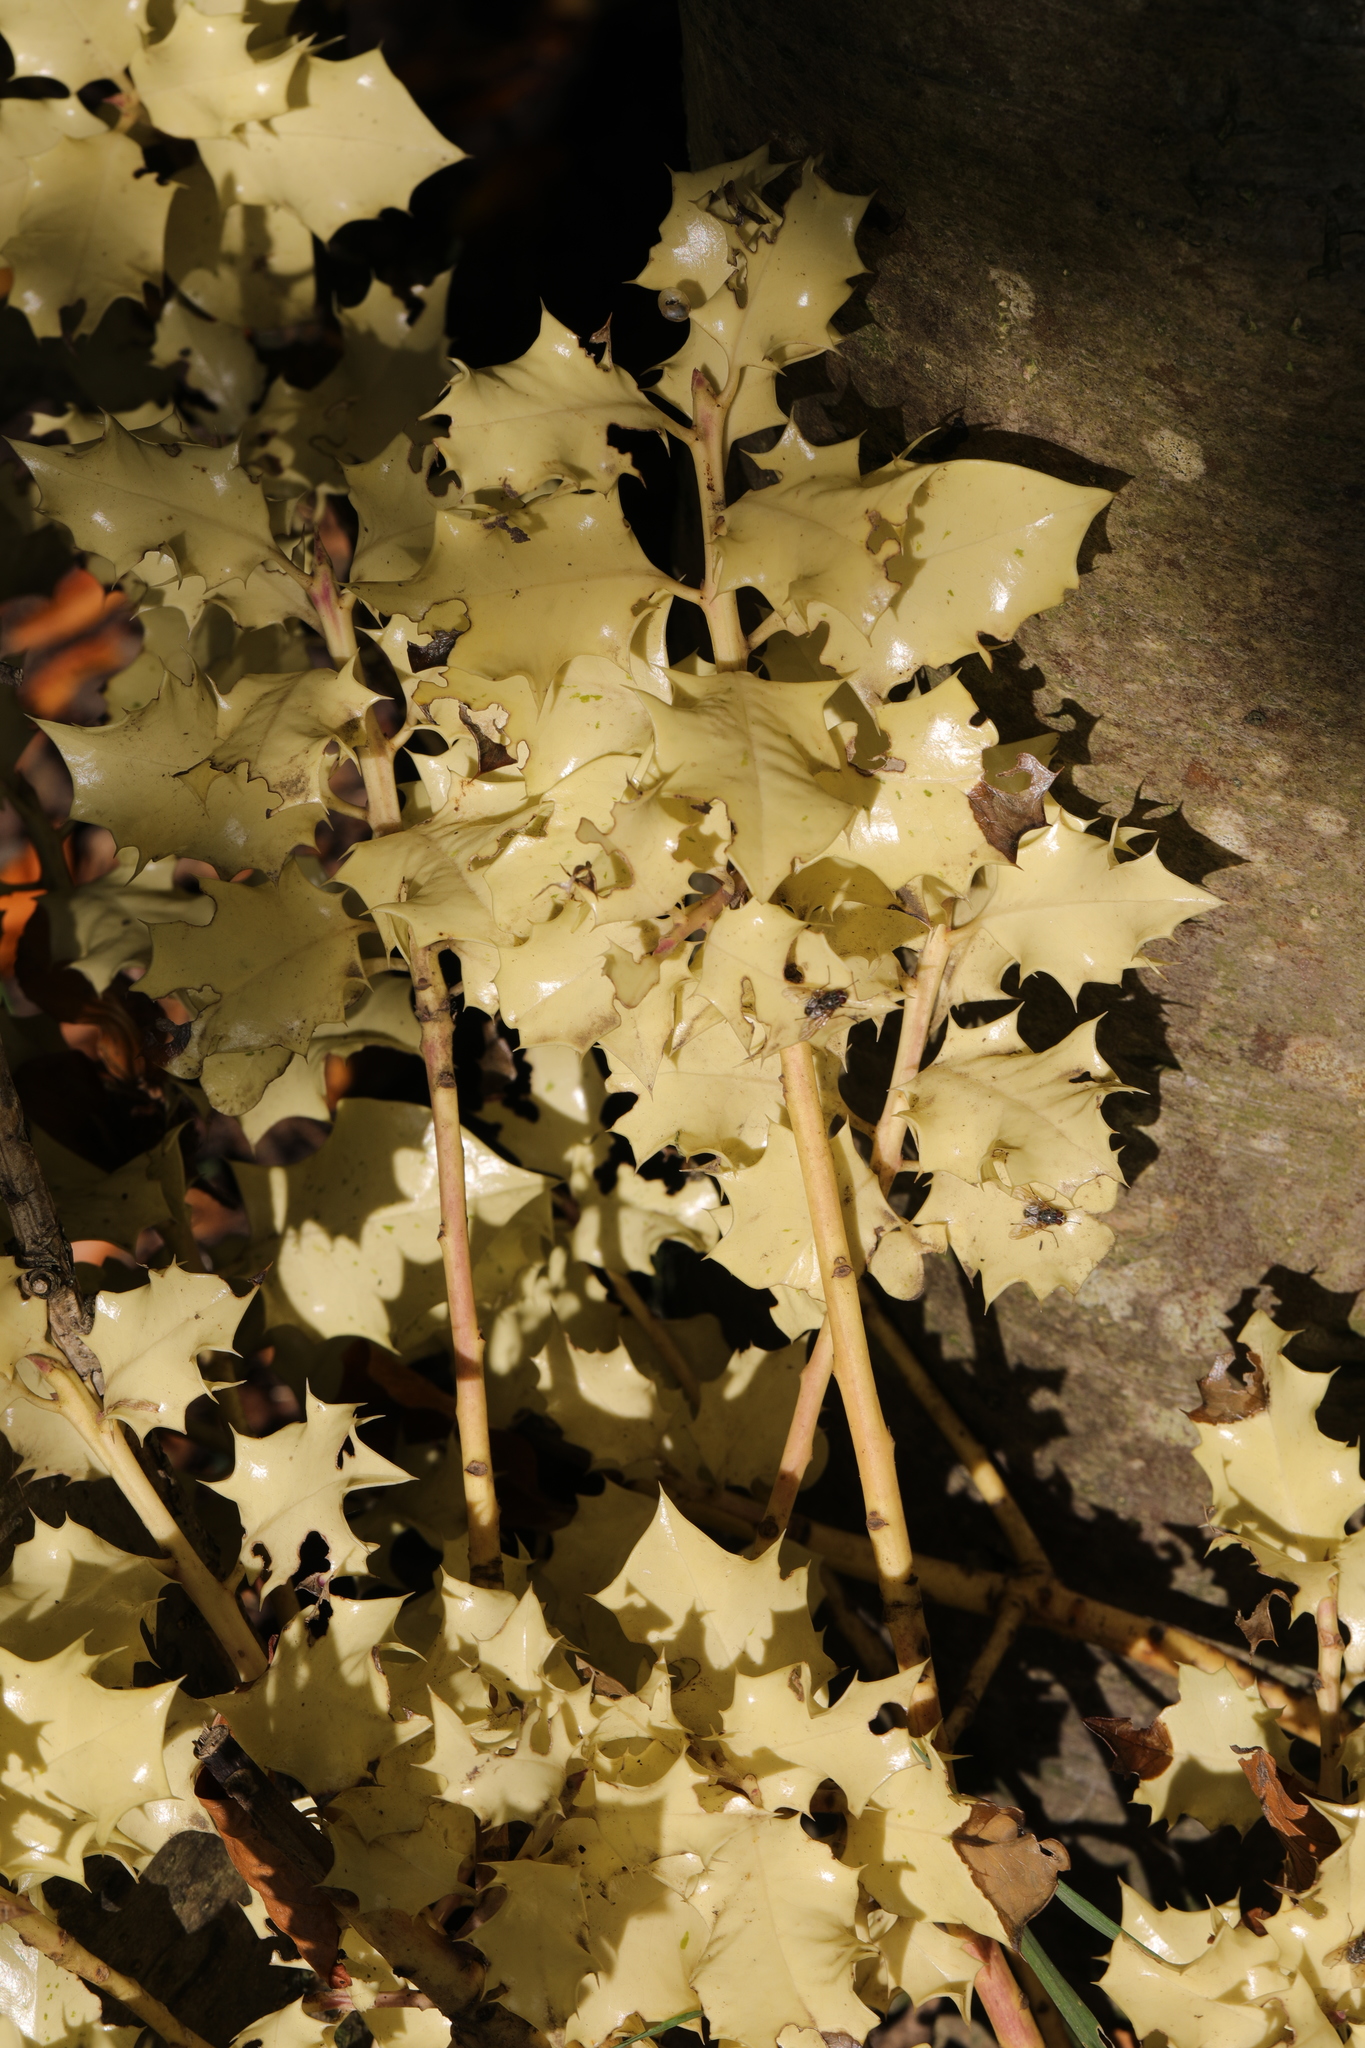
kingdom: Plantae
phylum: Tracheophyta
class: Magnoliopsida
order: Aquifoliales
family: Aquifoliaceae
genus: Ilex
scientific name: Ilex aquifolium
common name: English holly
